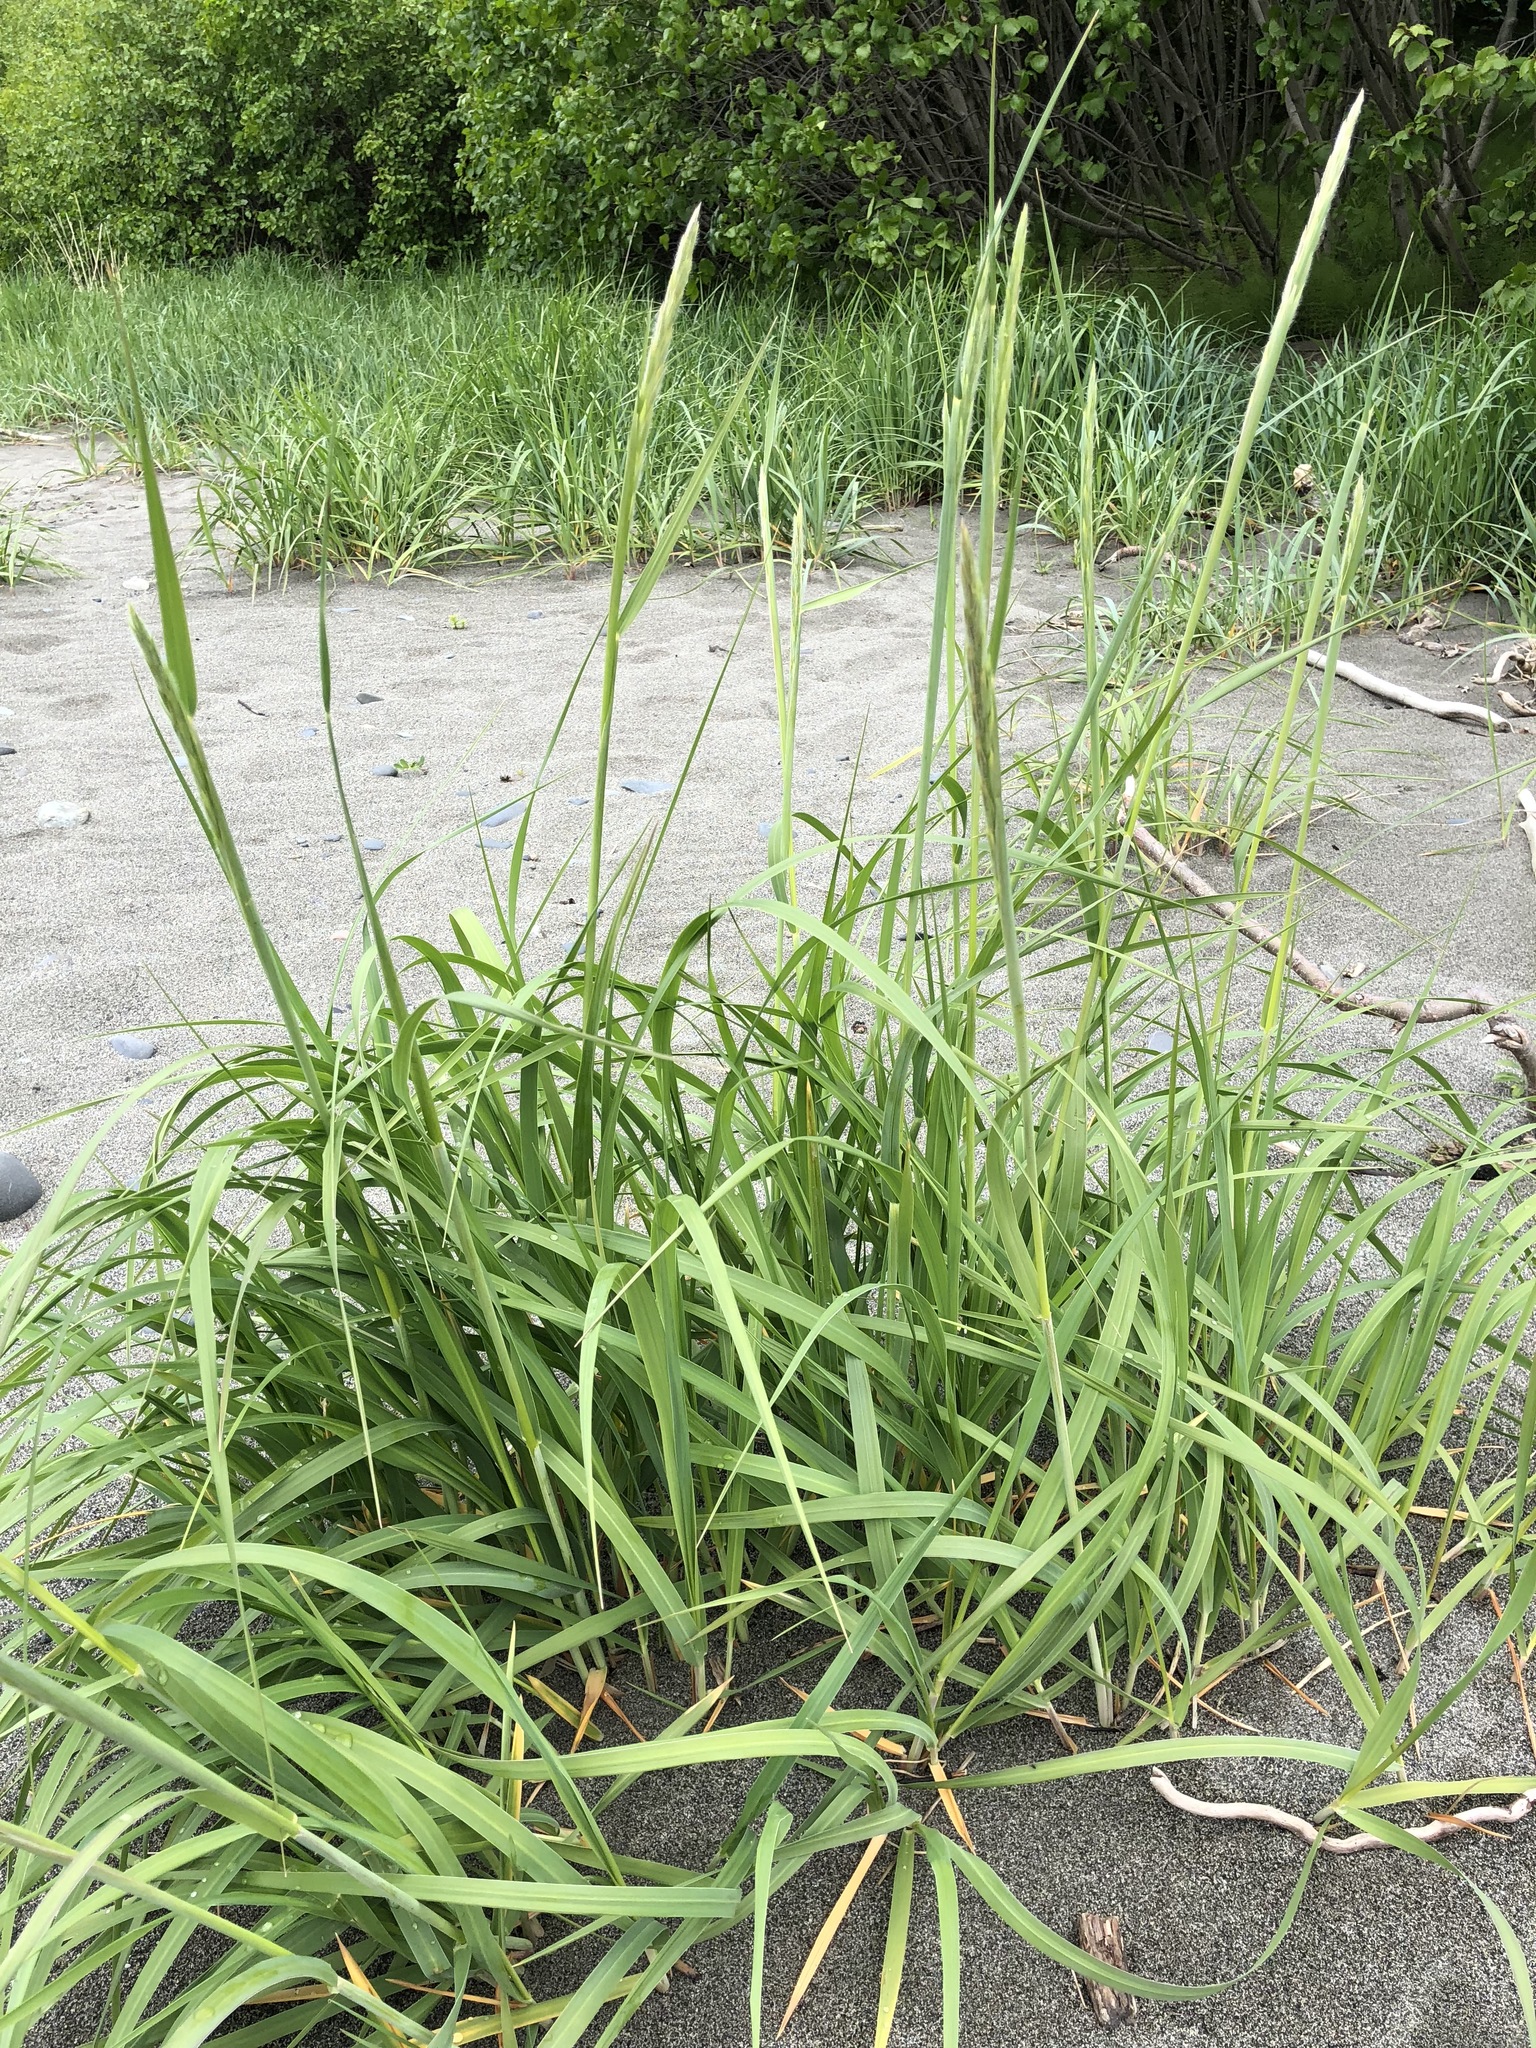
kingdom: Plantae
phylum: Tracheophyta
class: Liliopsida
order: Poales
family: Poaceae
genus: Leymus
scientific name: Leymus mollis
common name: American dune grass
